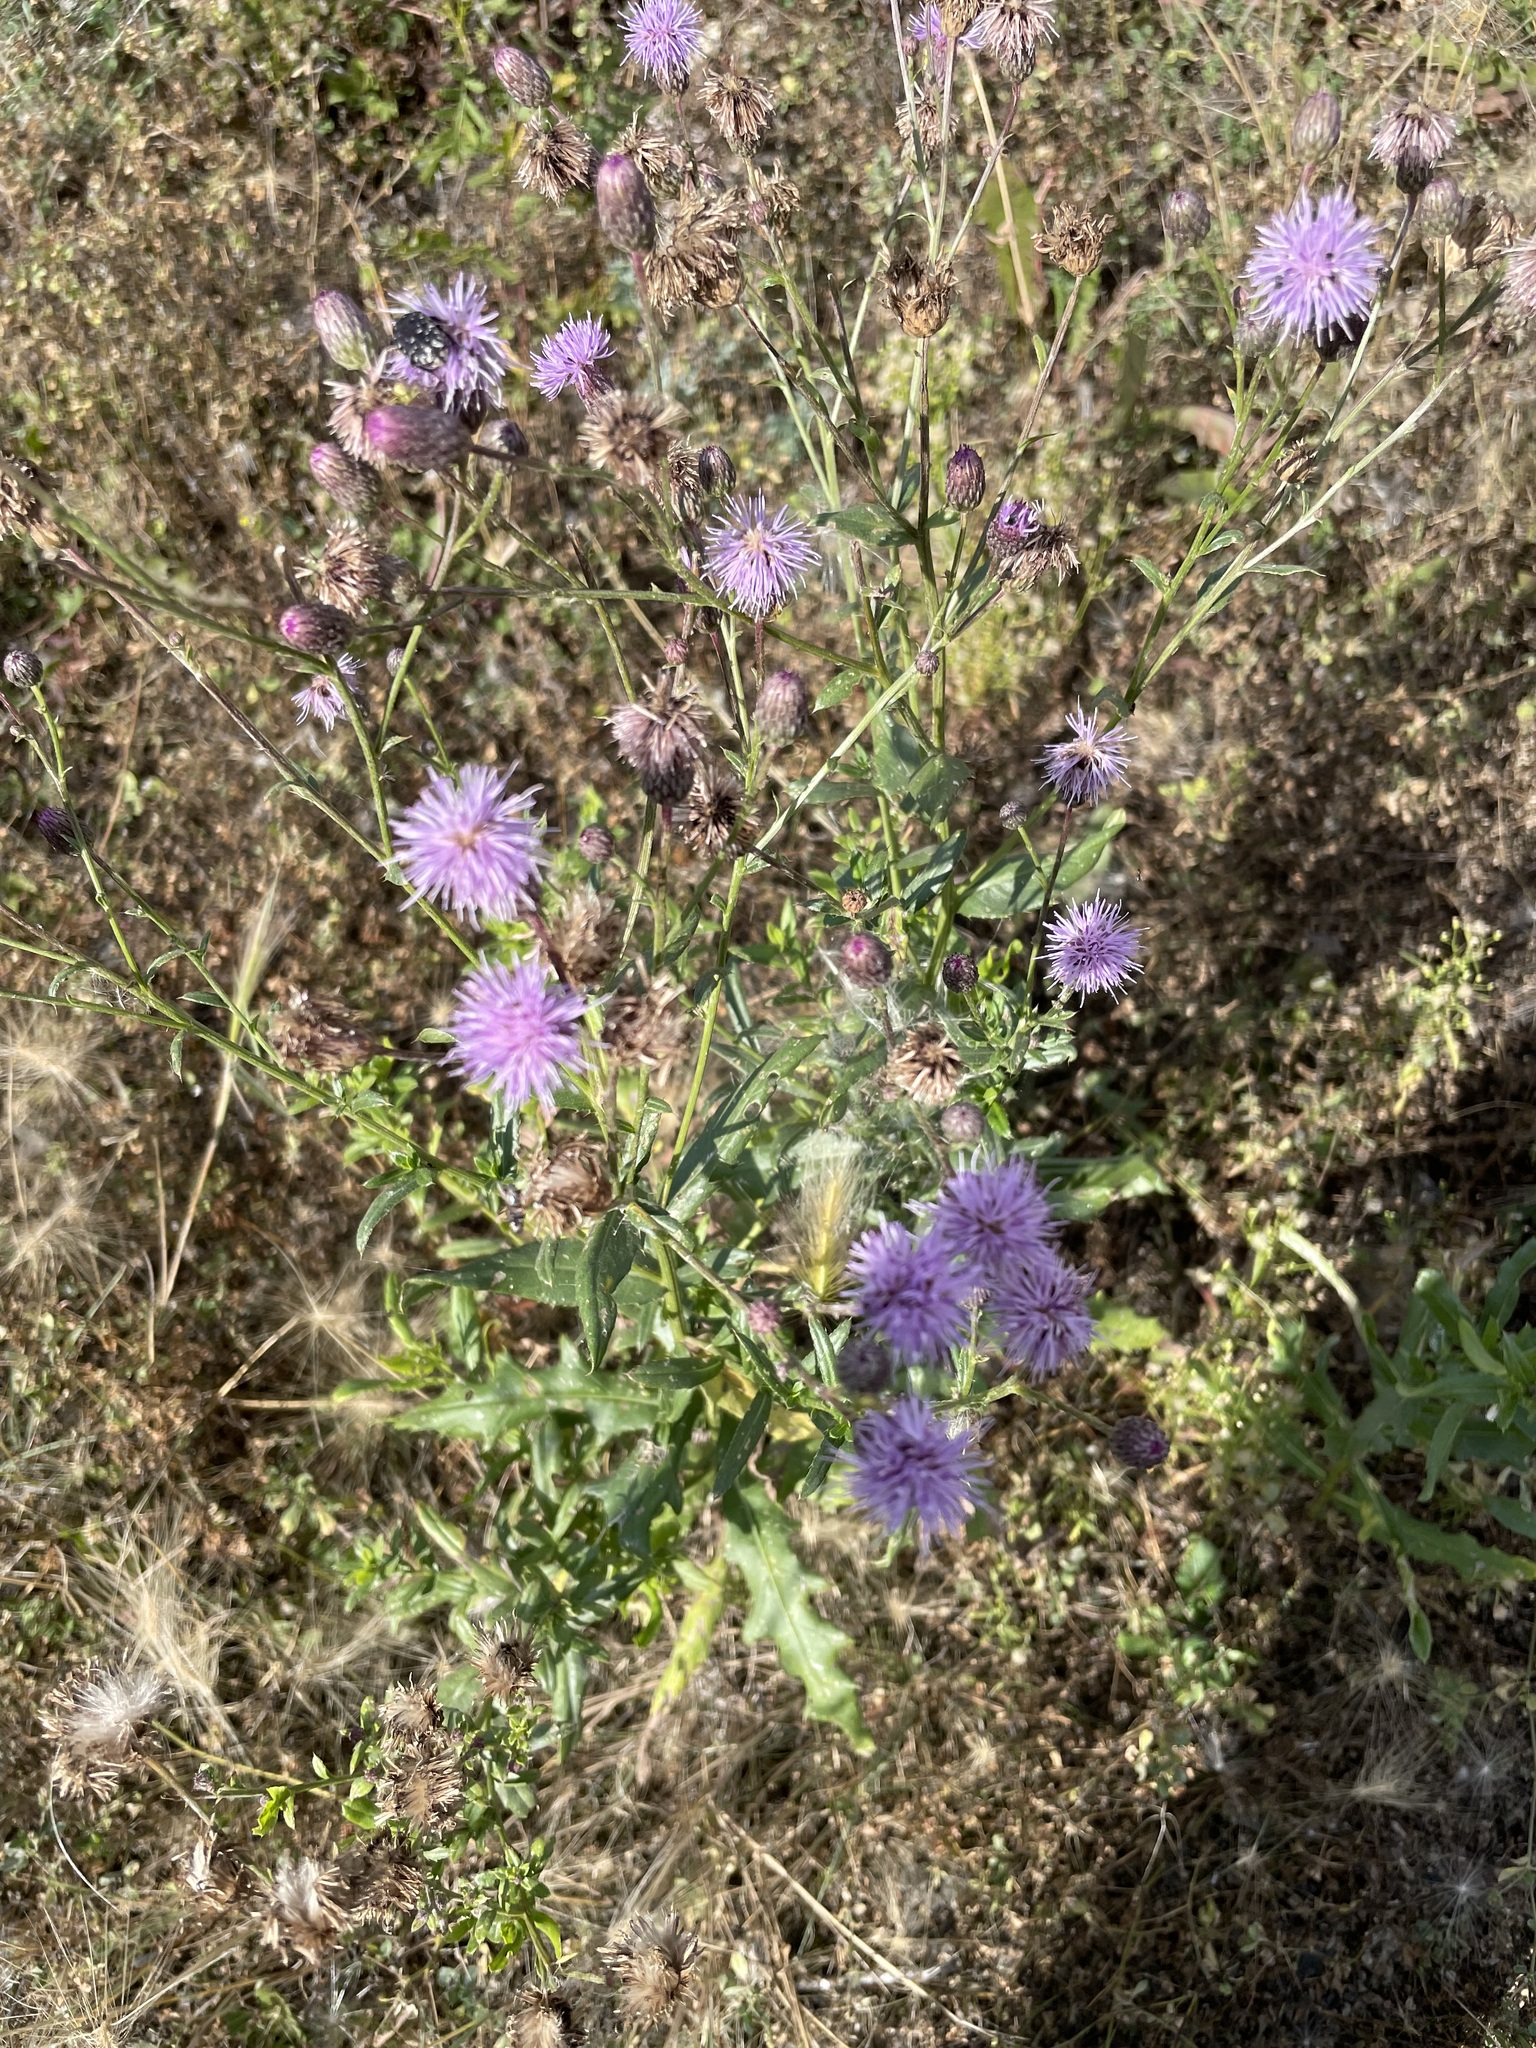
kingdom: Plantae
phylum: Tracheophyta
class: Magnoliopsida
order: Asterales
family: Asteraceae
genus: Cirsium
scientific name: Cirsium arvense
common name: Creeping thistle
